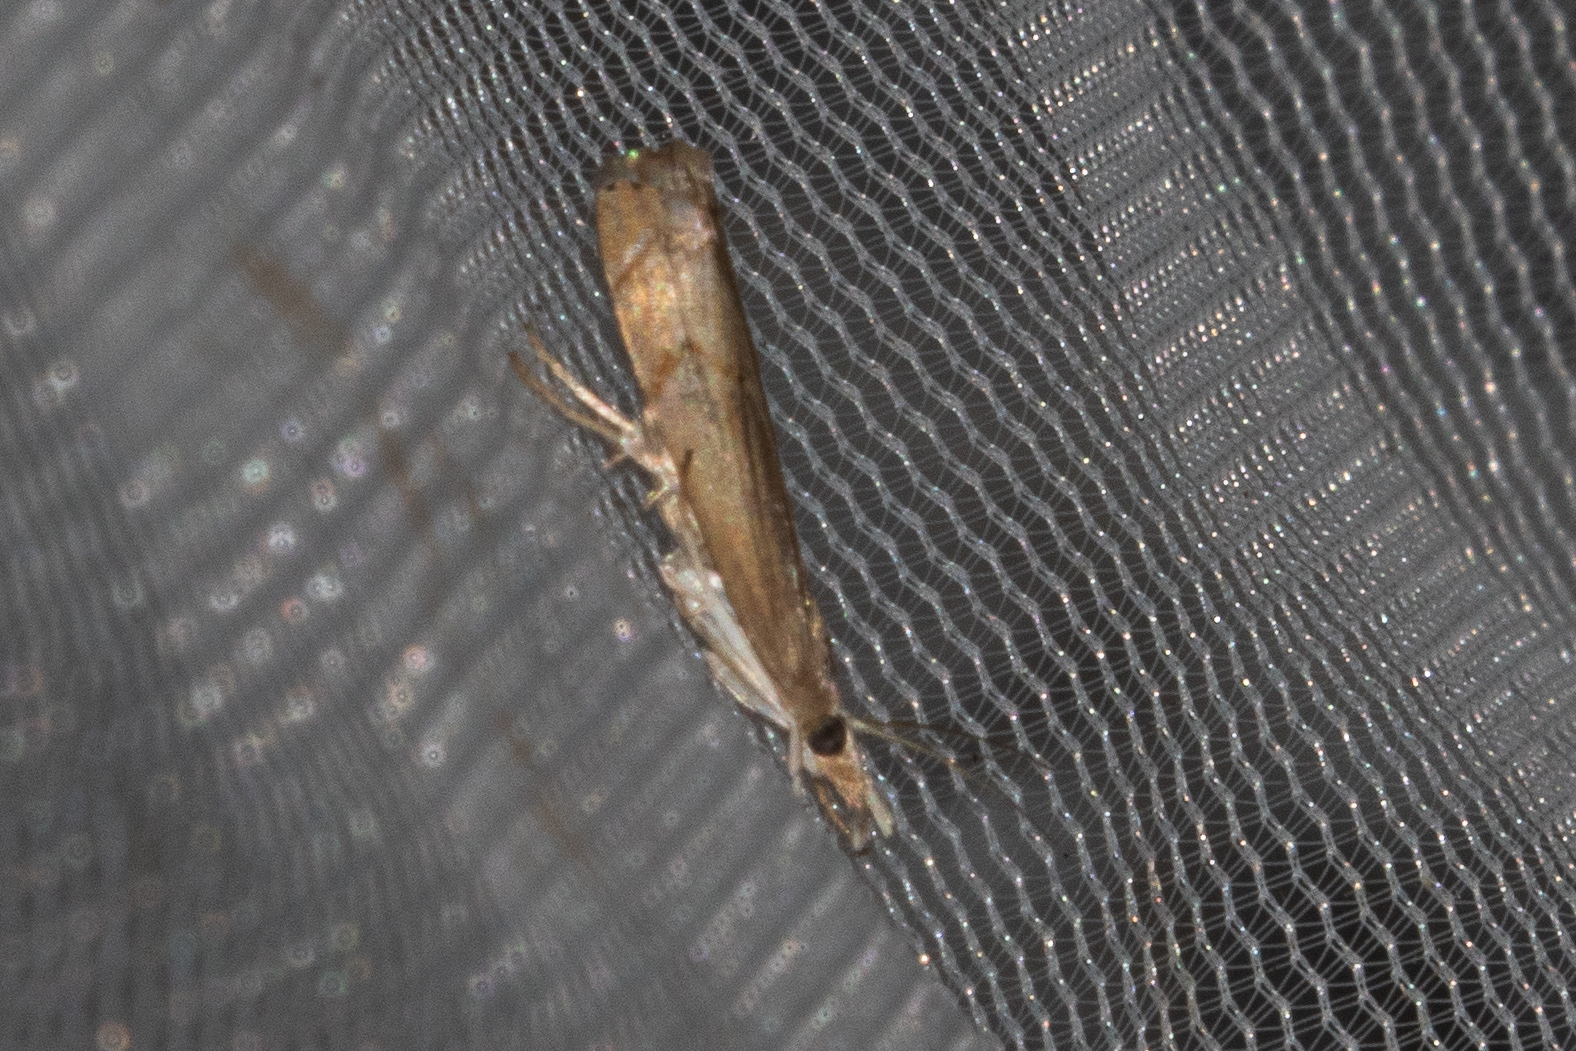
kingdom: Animalia
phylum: Arthropoda
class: Insecta
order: Lepidoptera
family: Crambidae
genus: Parapediasia
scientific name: Parapediasia teterellus
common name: Bluegrass webworm moth
